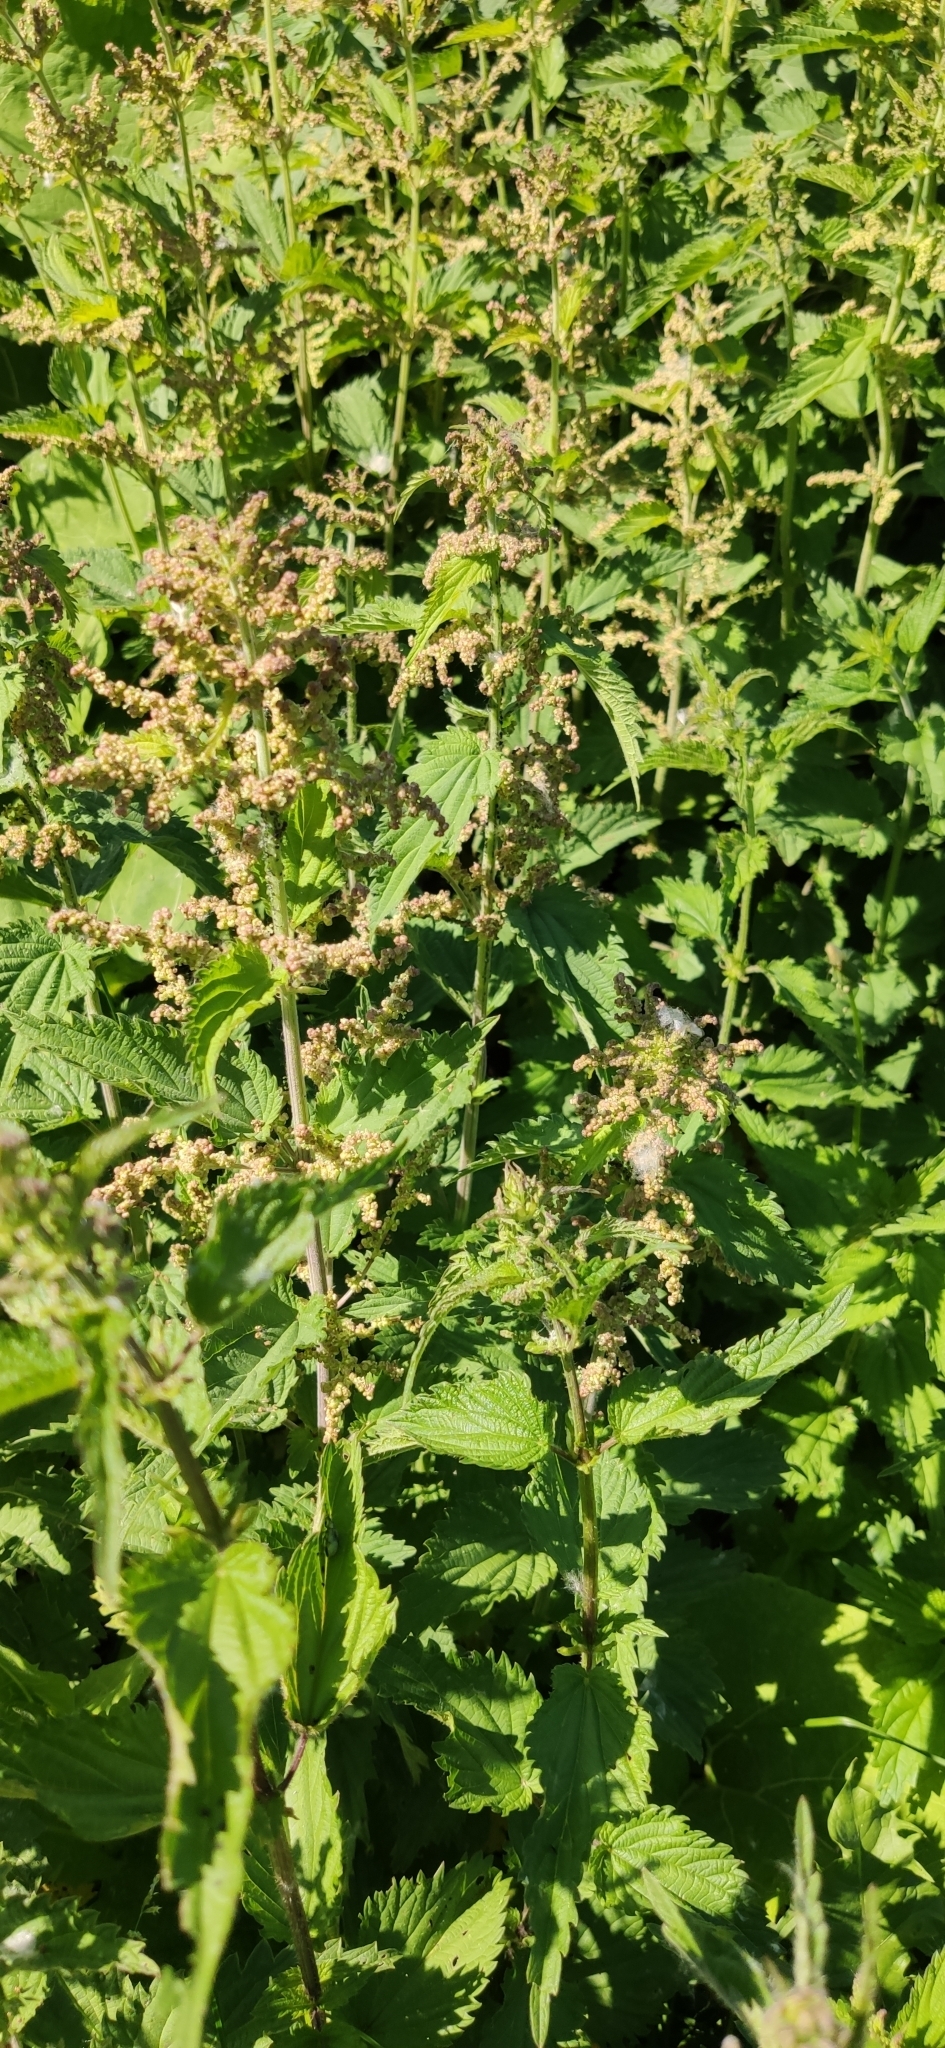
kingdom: Plantae
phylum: Tracheophyta
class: Magnoliopsida
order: Rosales
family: Urticaceae
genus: Urtica
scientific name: Urtica dioica
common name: Common nettle
